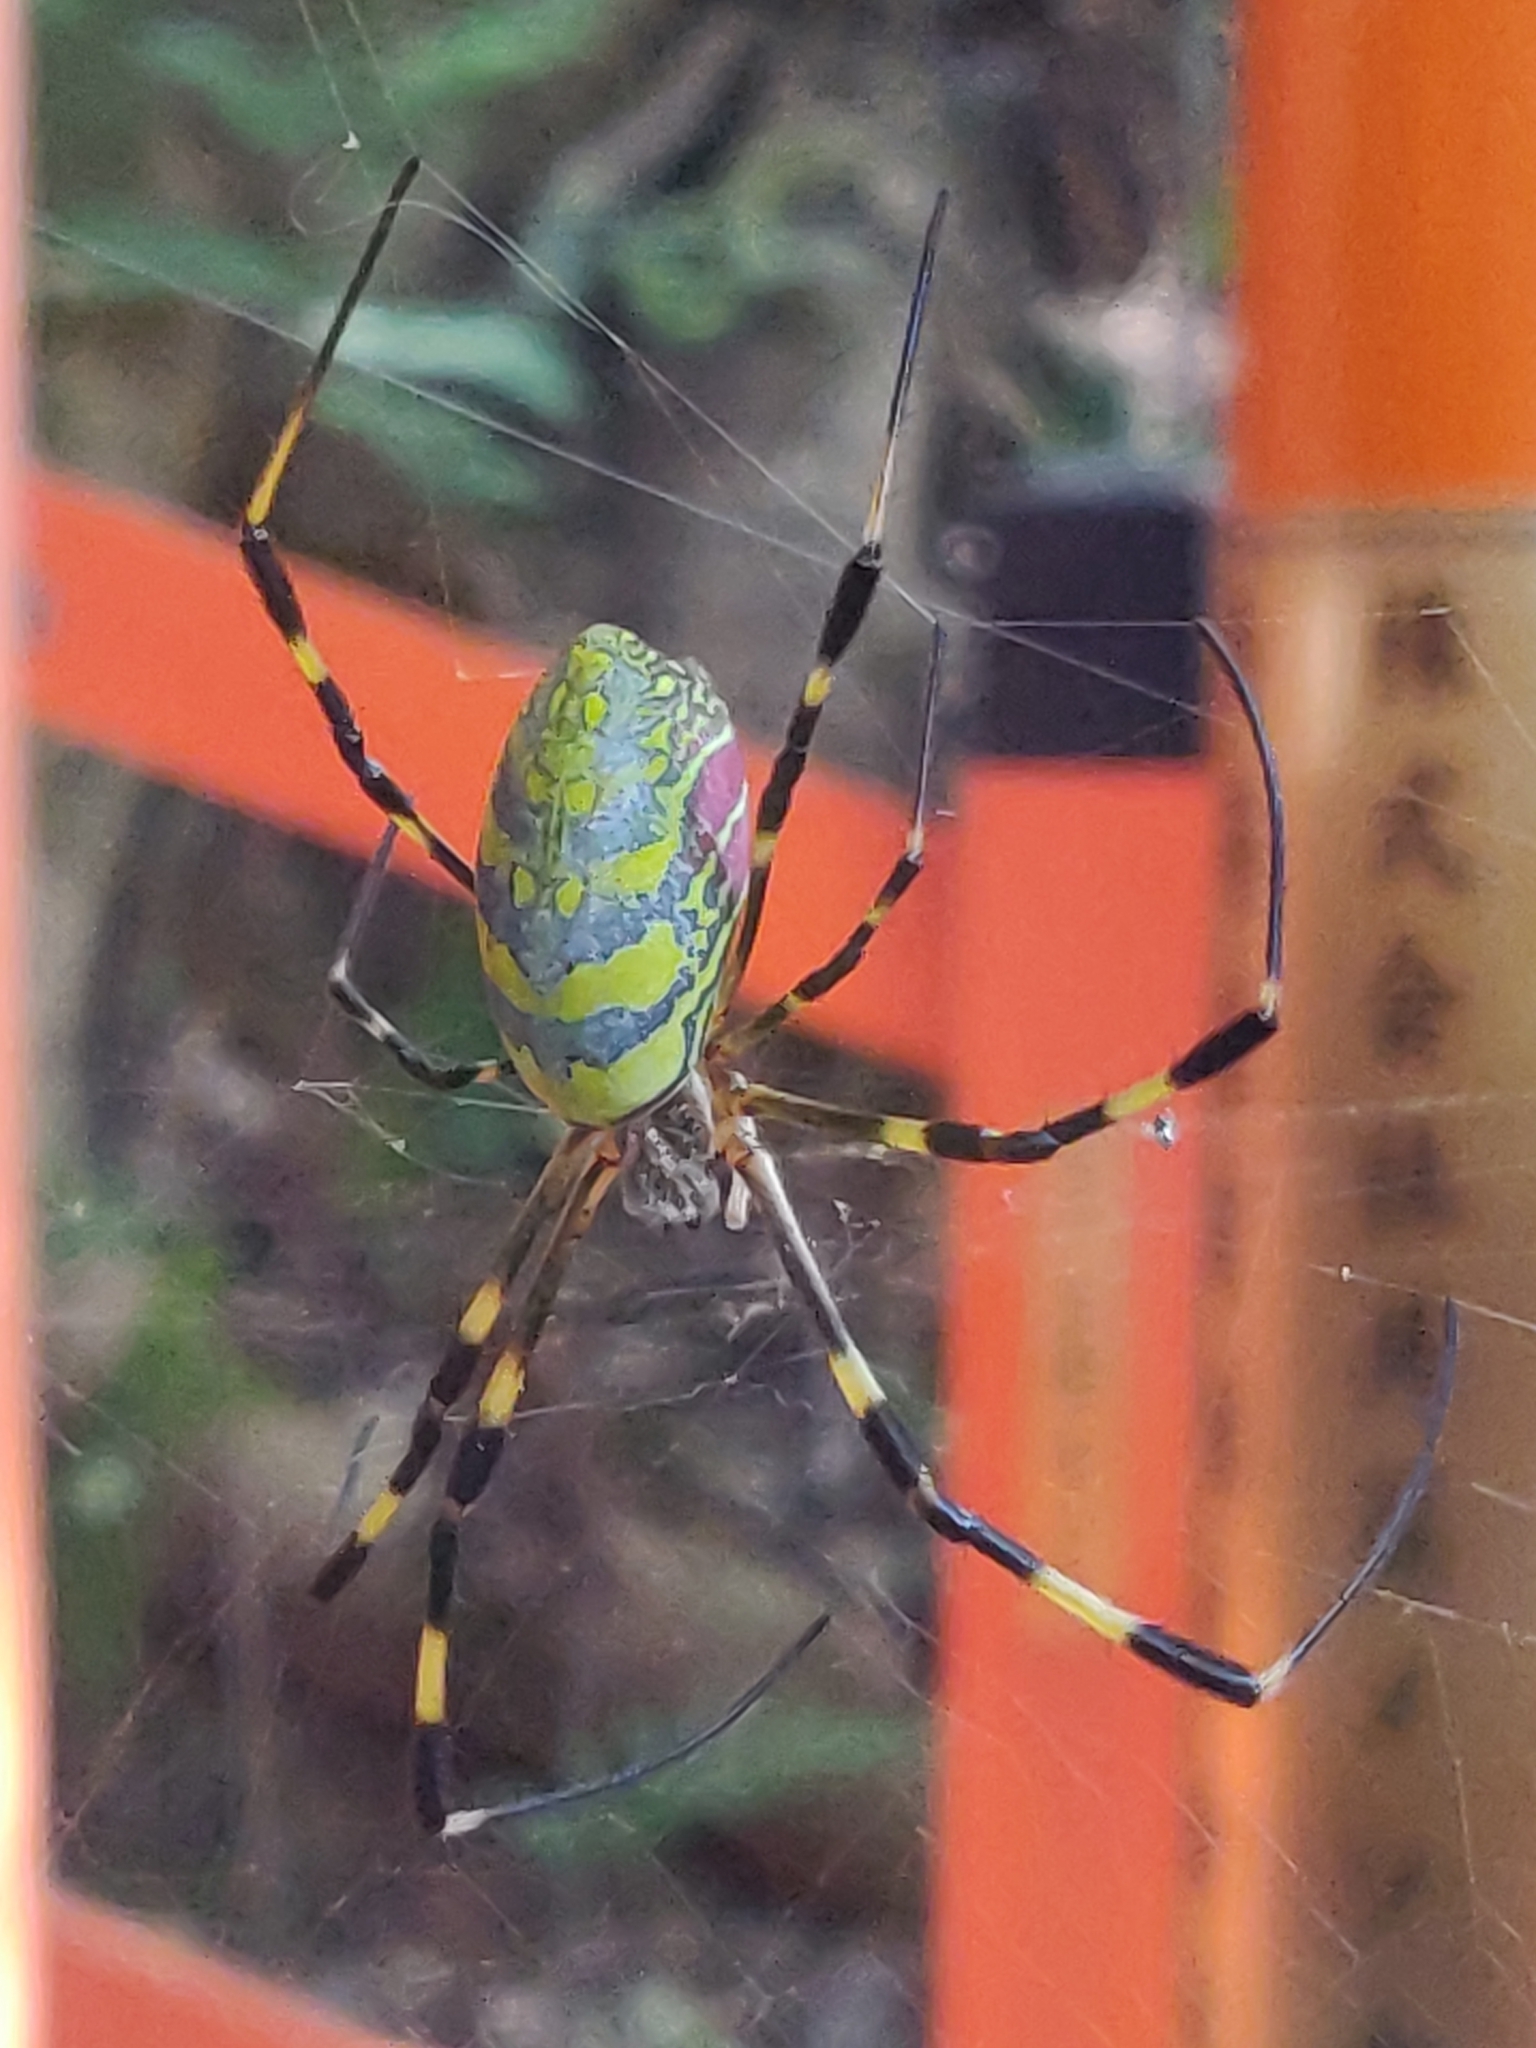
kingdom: Animalia
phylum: Arthropoda
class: Arachnida
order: Araneae
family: Araneidae
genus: Trichonephila
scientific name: Trichonephila clavata
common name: Jorō spider
